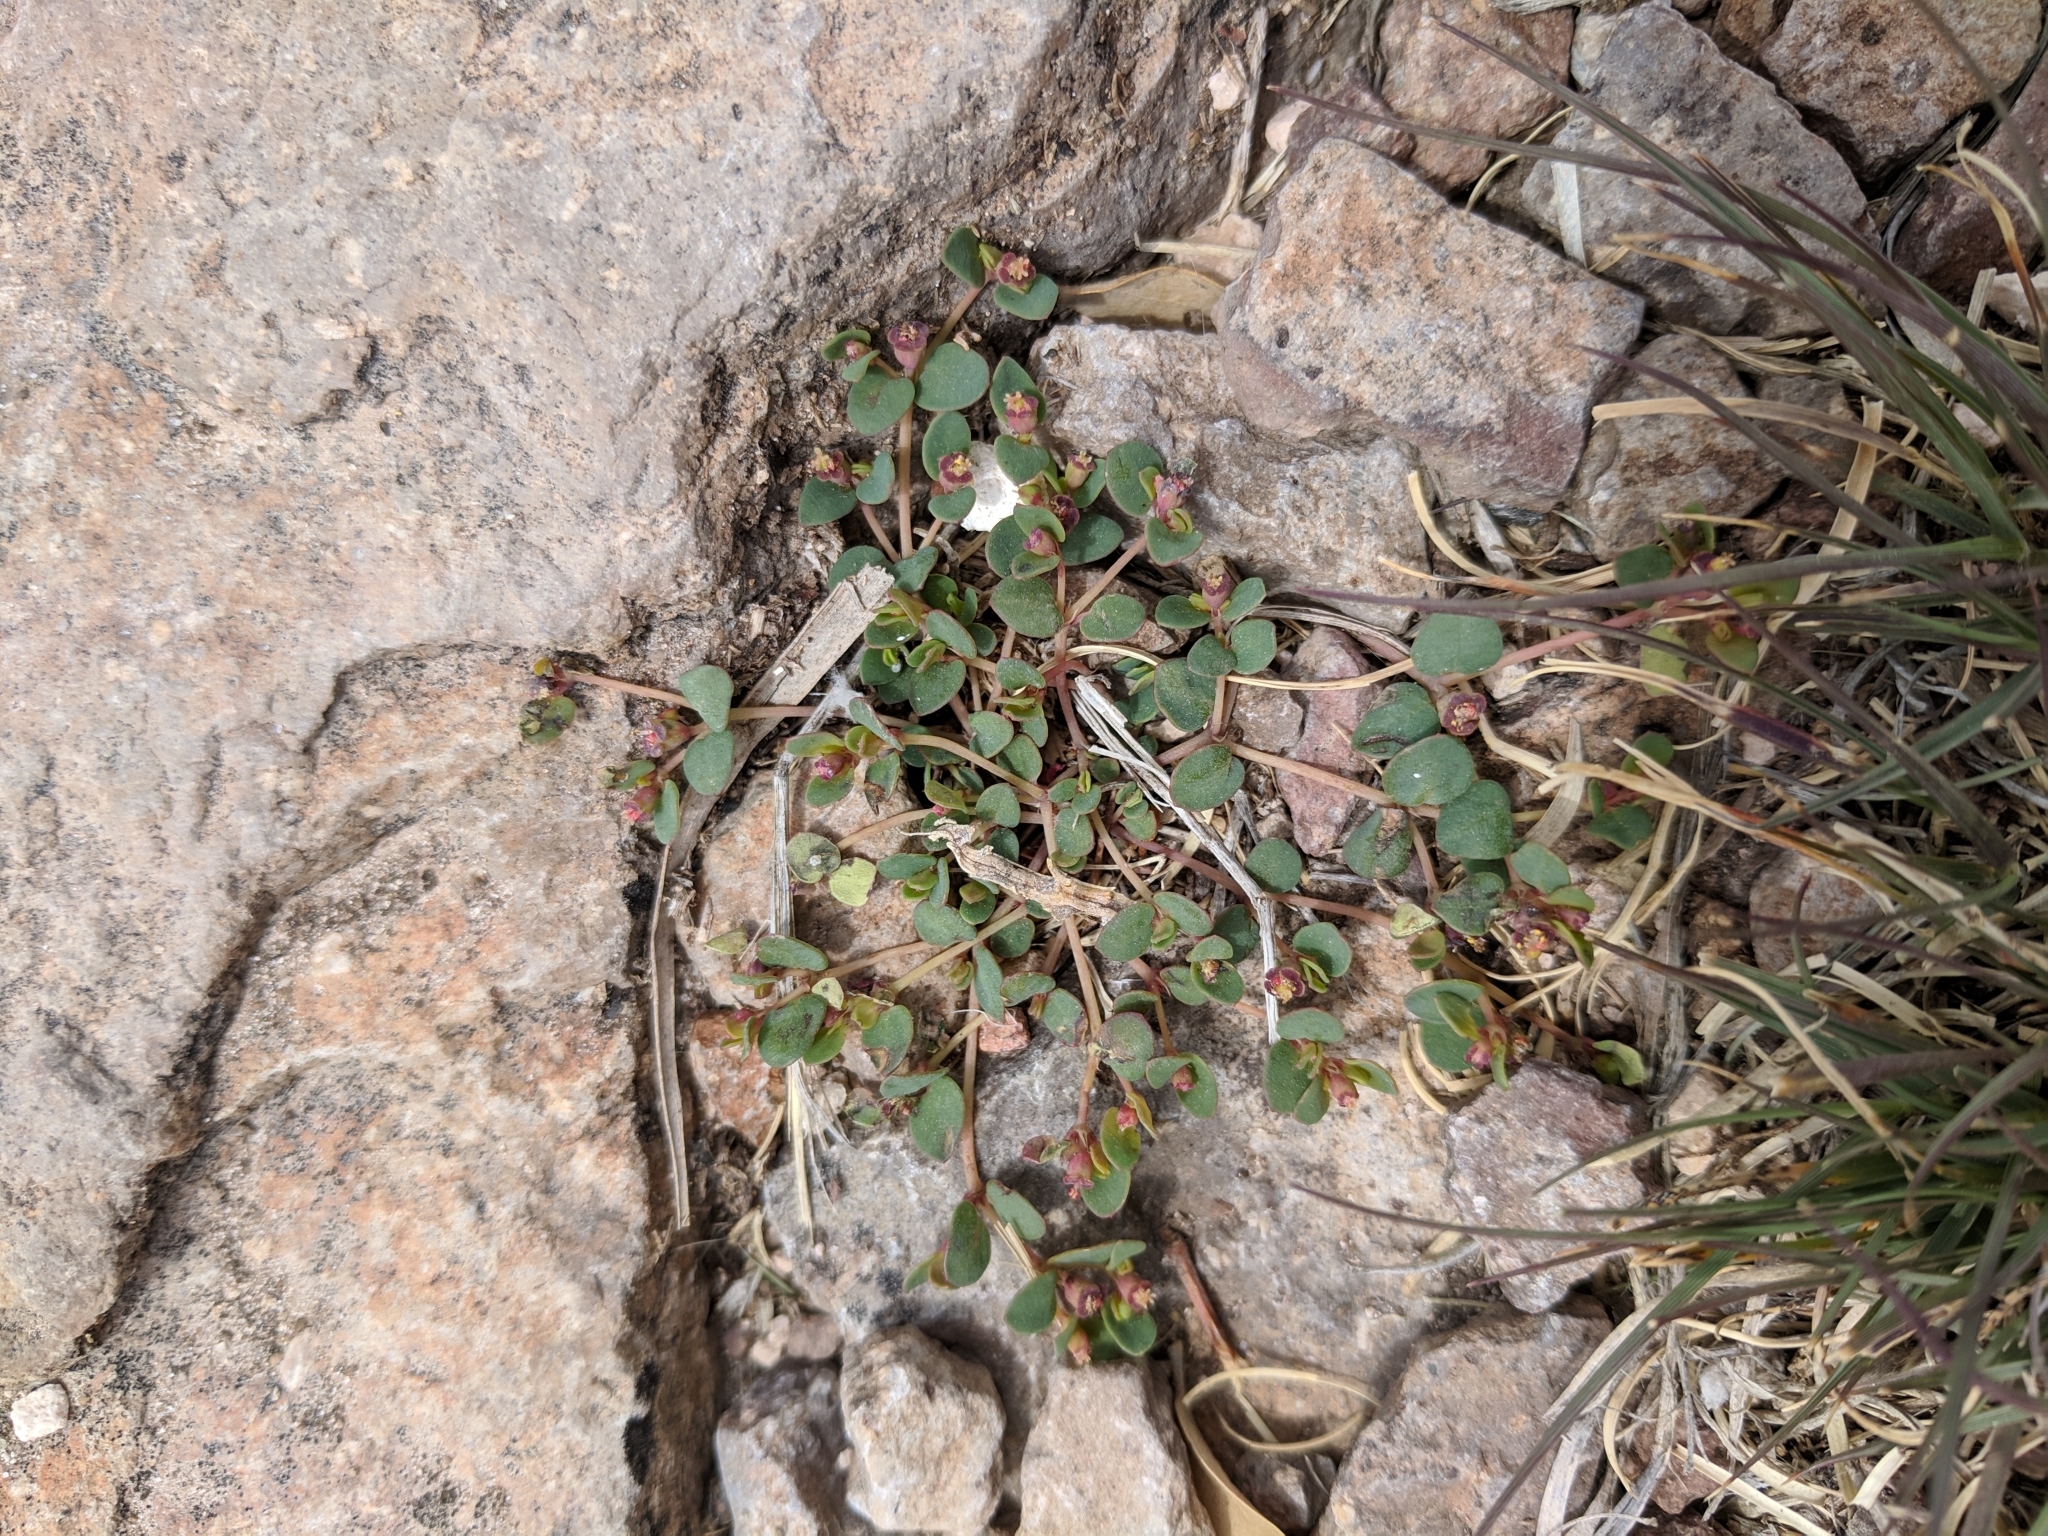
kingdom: Plantae
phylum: Tracheophyta
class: Magnoliopsida
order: Malpighiales
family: Euphorbiaceae
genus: Euphorbia
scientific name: Euphorbia fendleri
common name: Fendler's euphorbia
